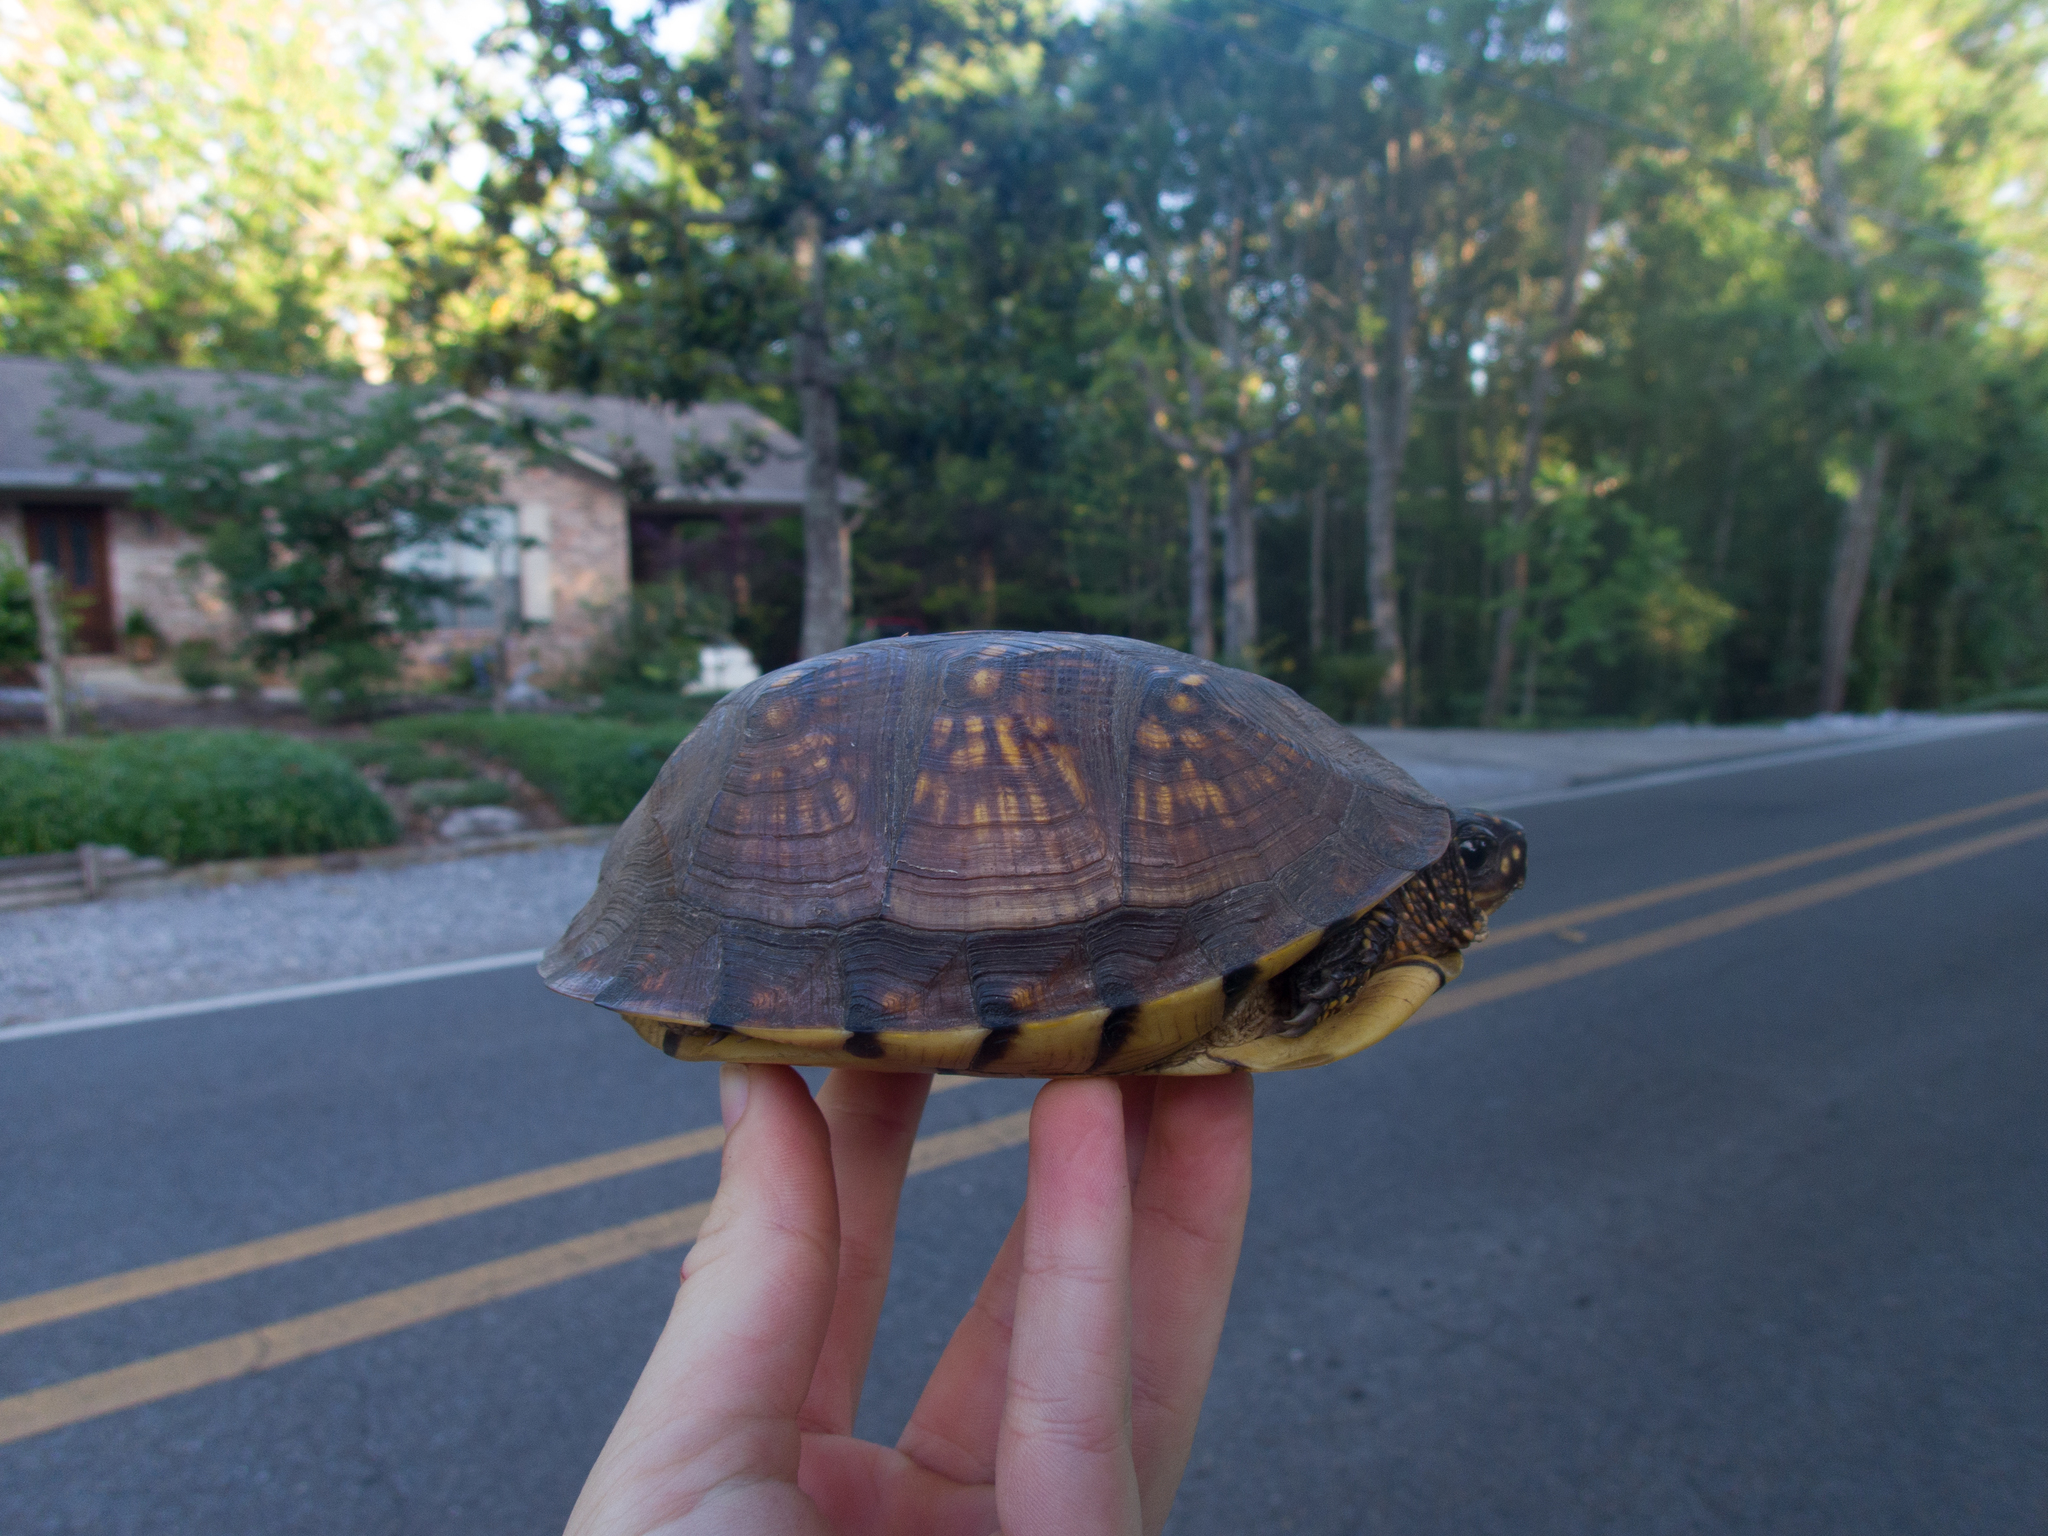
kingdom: Animalia
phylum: Chordata
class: Testudines
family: Emydidae
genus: Terrapene
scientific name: Terrapene carolina
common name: Common box turtle
